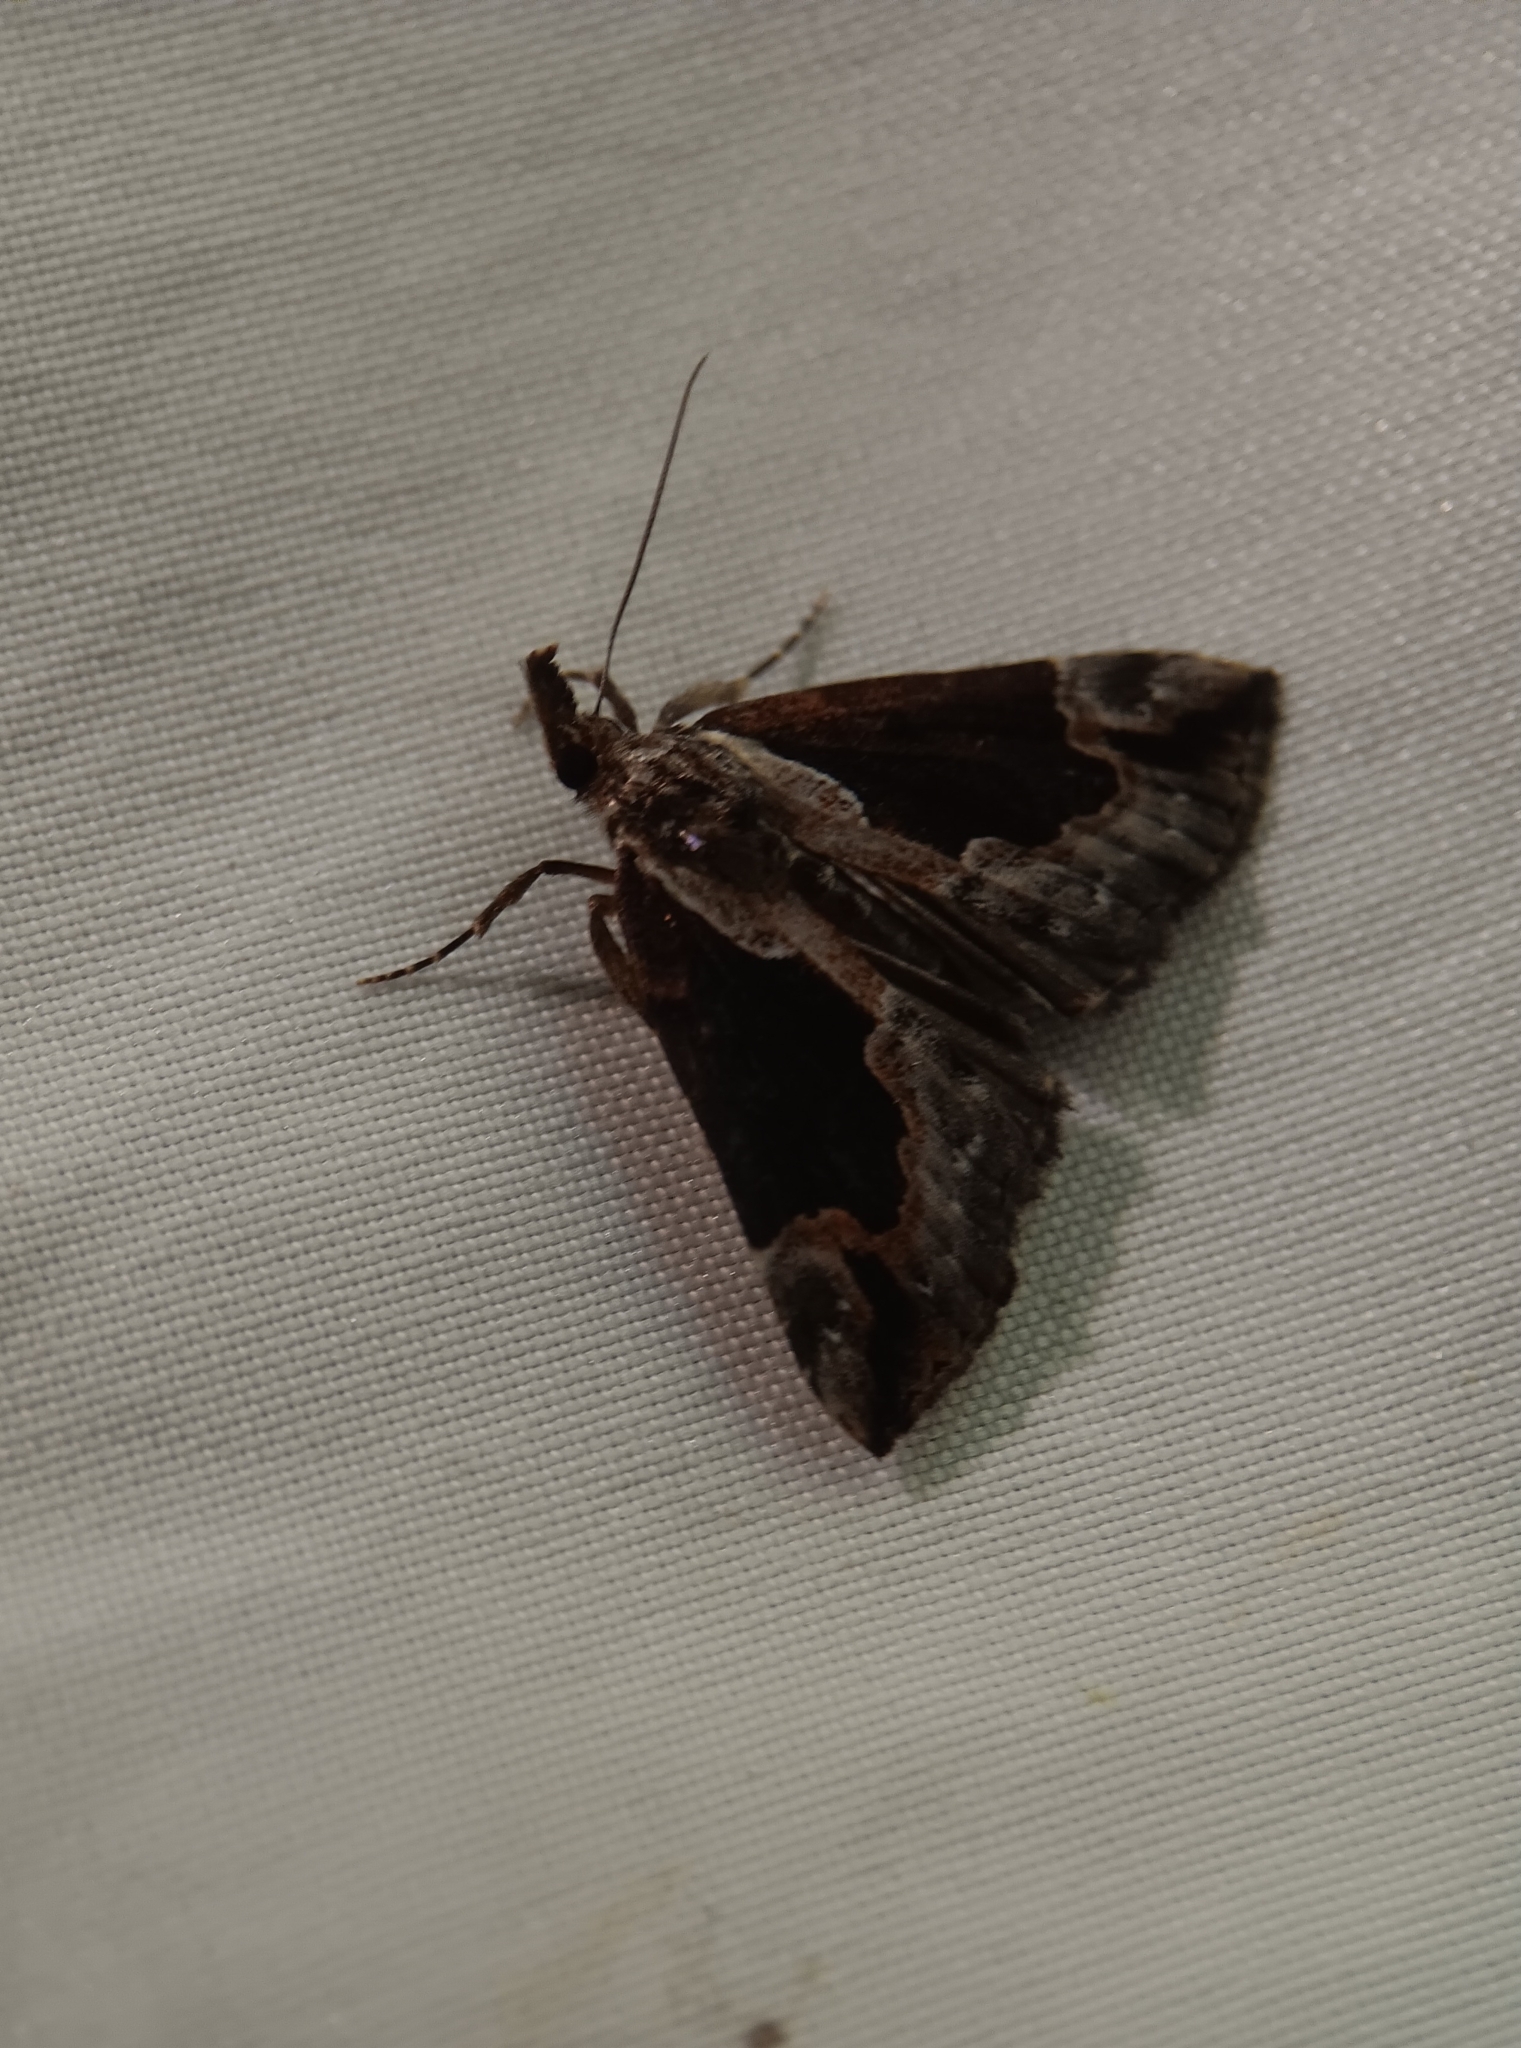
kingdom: Animalia
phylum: Arthropoda
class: Insecta
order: Lepidoptera
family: Erebidae
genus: Hypena
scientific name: Hypena baltimoralis
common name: Baltimore snout
